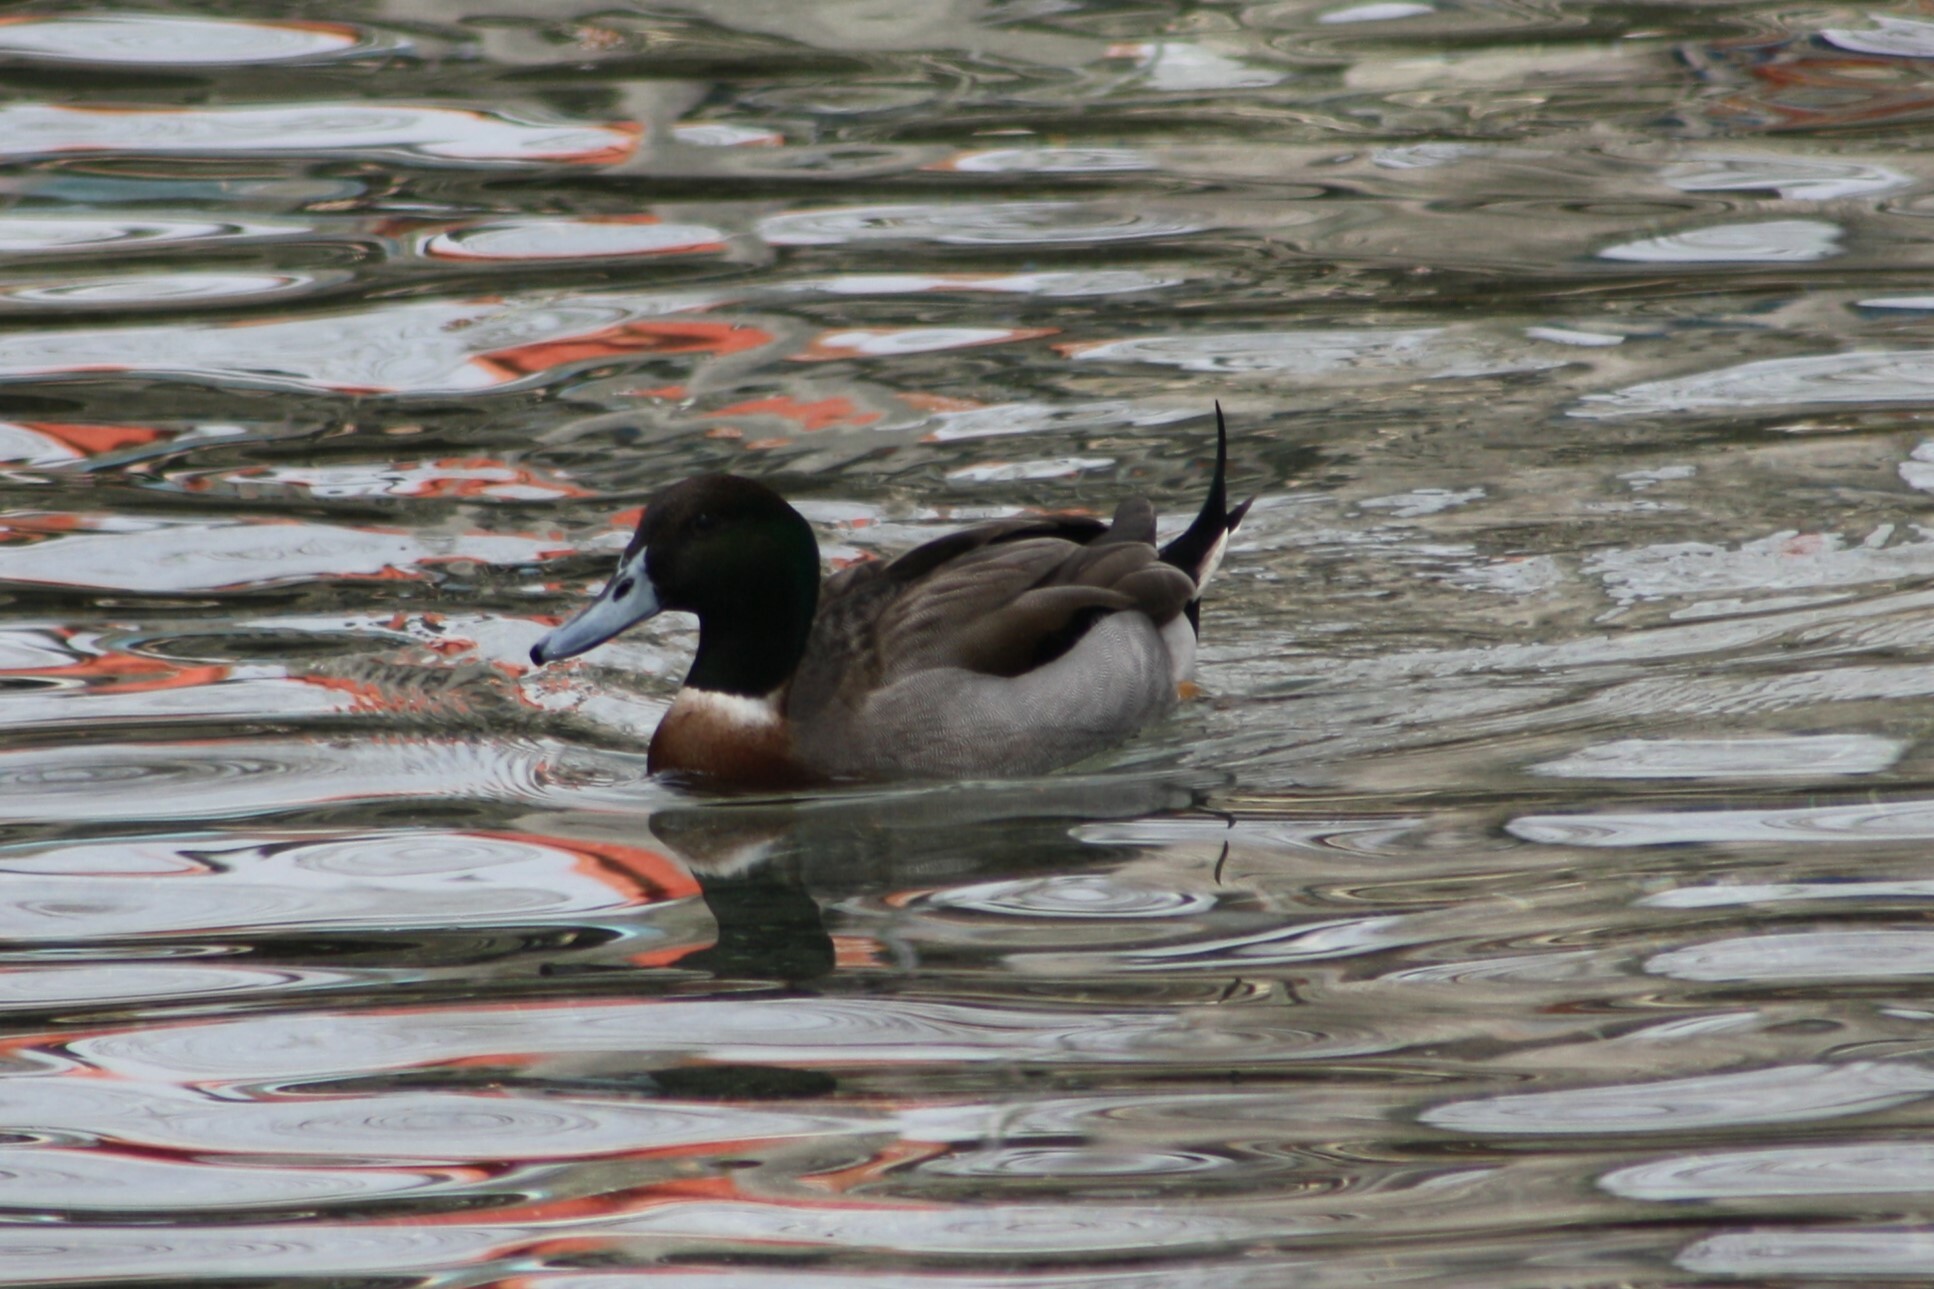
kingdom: Animalia
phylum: Chordata
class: Aves
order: Anseriformes
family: Anatidae
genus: Anas
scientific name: Anas
